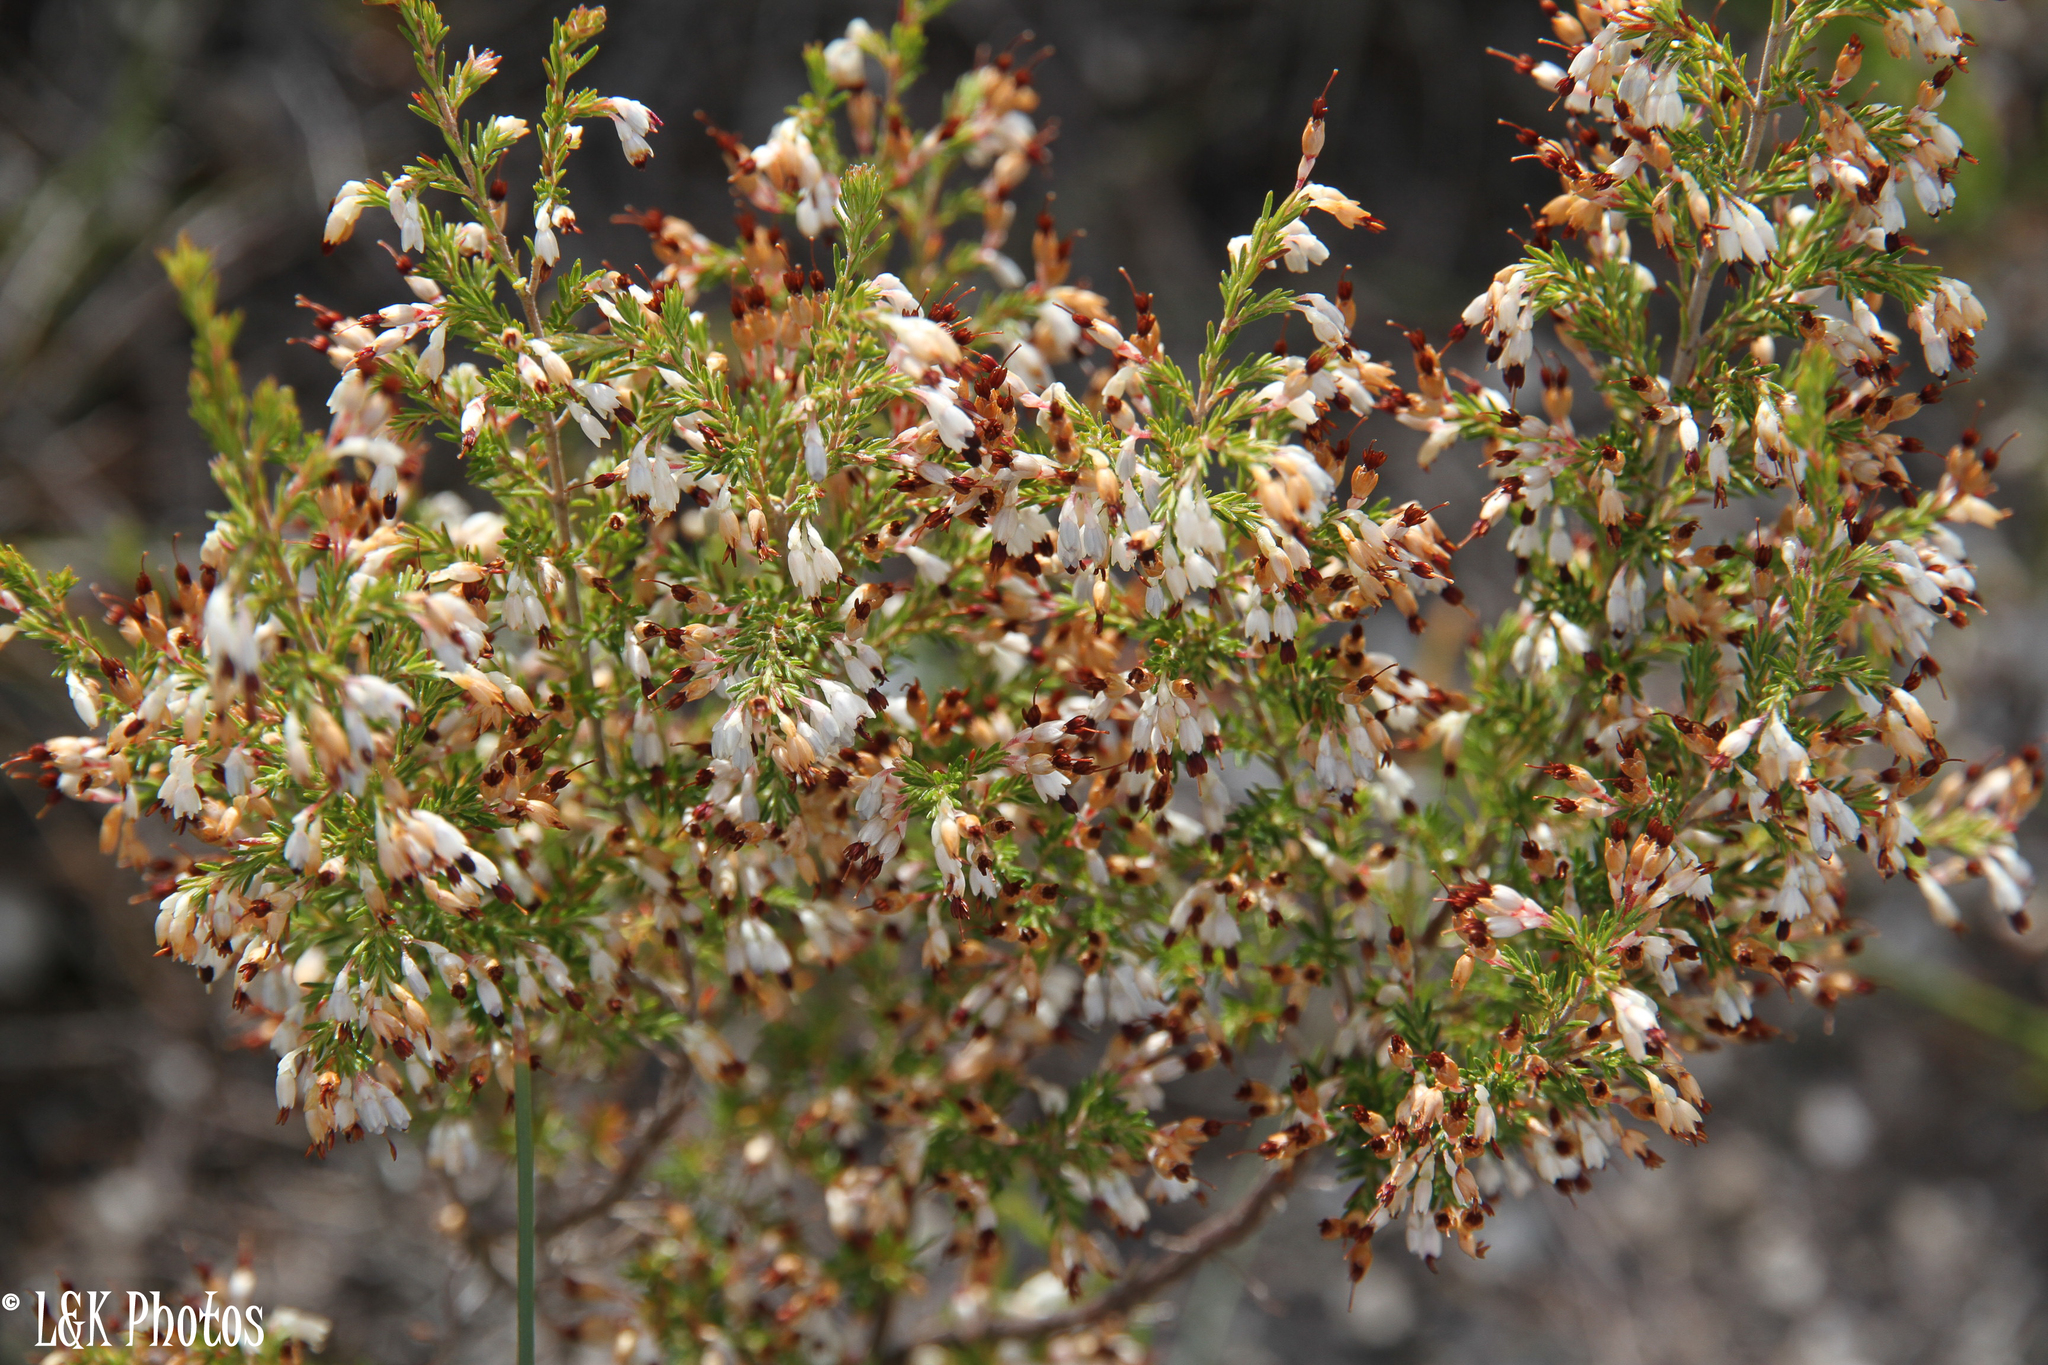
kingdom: Plantae
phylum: Tracheophyta
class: Magnoliopsida
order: Ericales
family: Ericaceae
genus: Erica
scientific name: Erica imbricata
